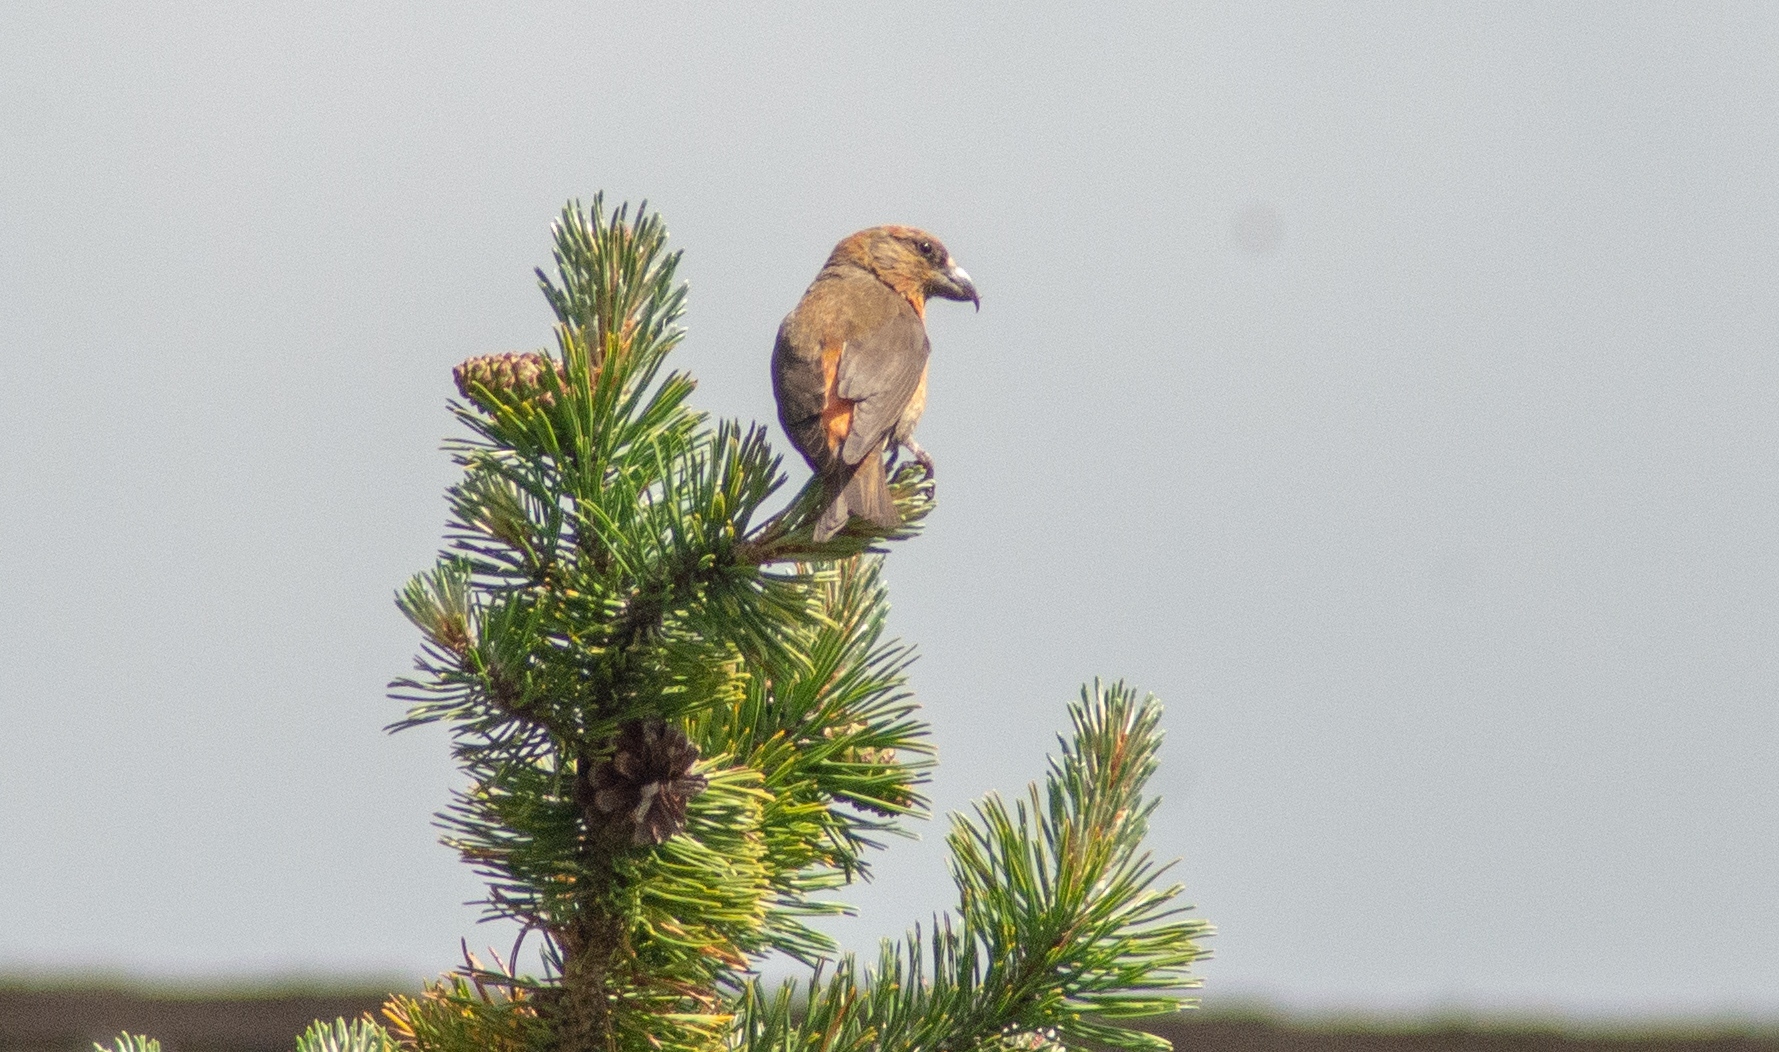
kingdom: Animalia
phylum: Chordata
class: Aves
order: Passeriformes
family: Fringillidae
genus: Loxia
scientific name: Loxia curvirostra
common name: Red crossbill
